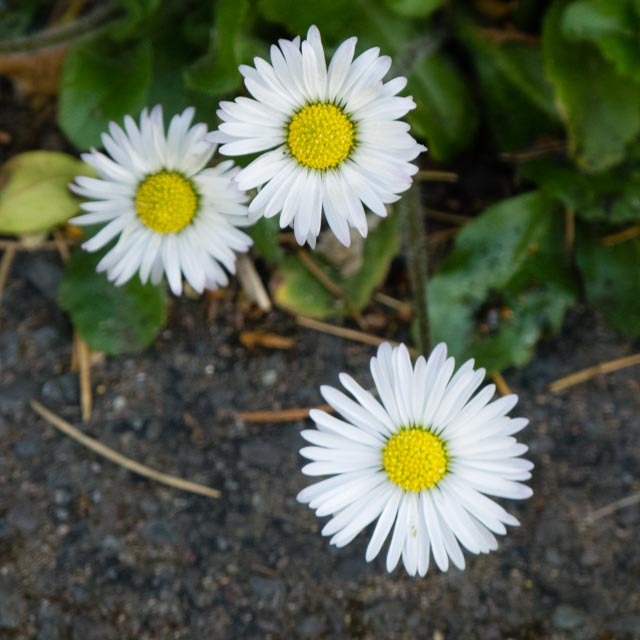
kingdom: Plantae
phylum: Tracheophyta
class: Magnoliopsida
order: Asterales
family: Asteraceae
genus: Bellis
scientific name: Bellis perennis
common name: Lawndaisy
